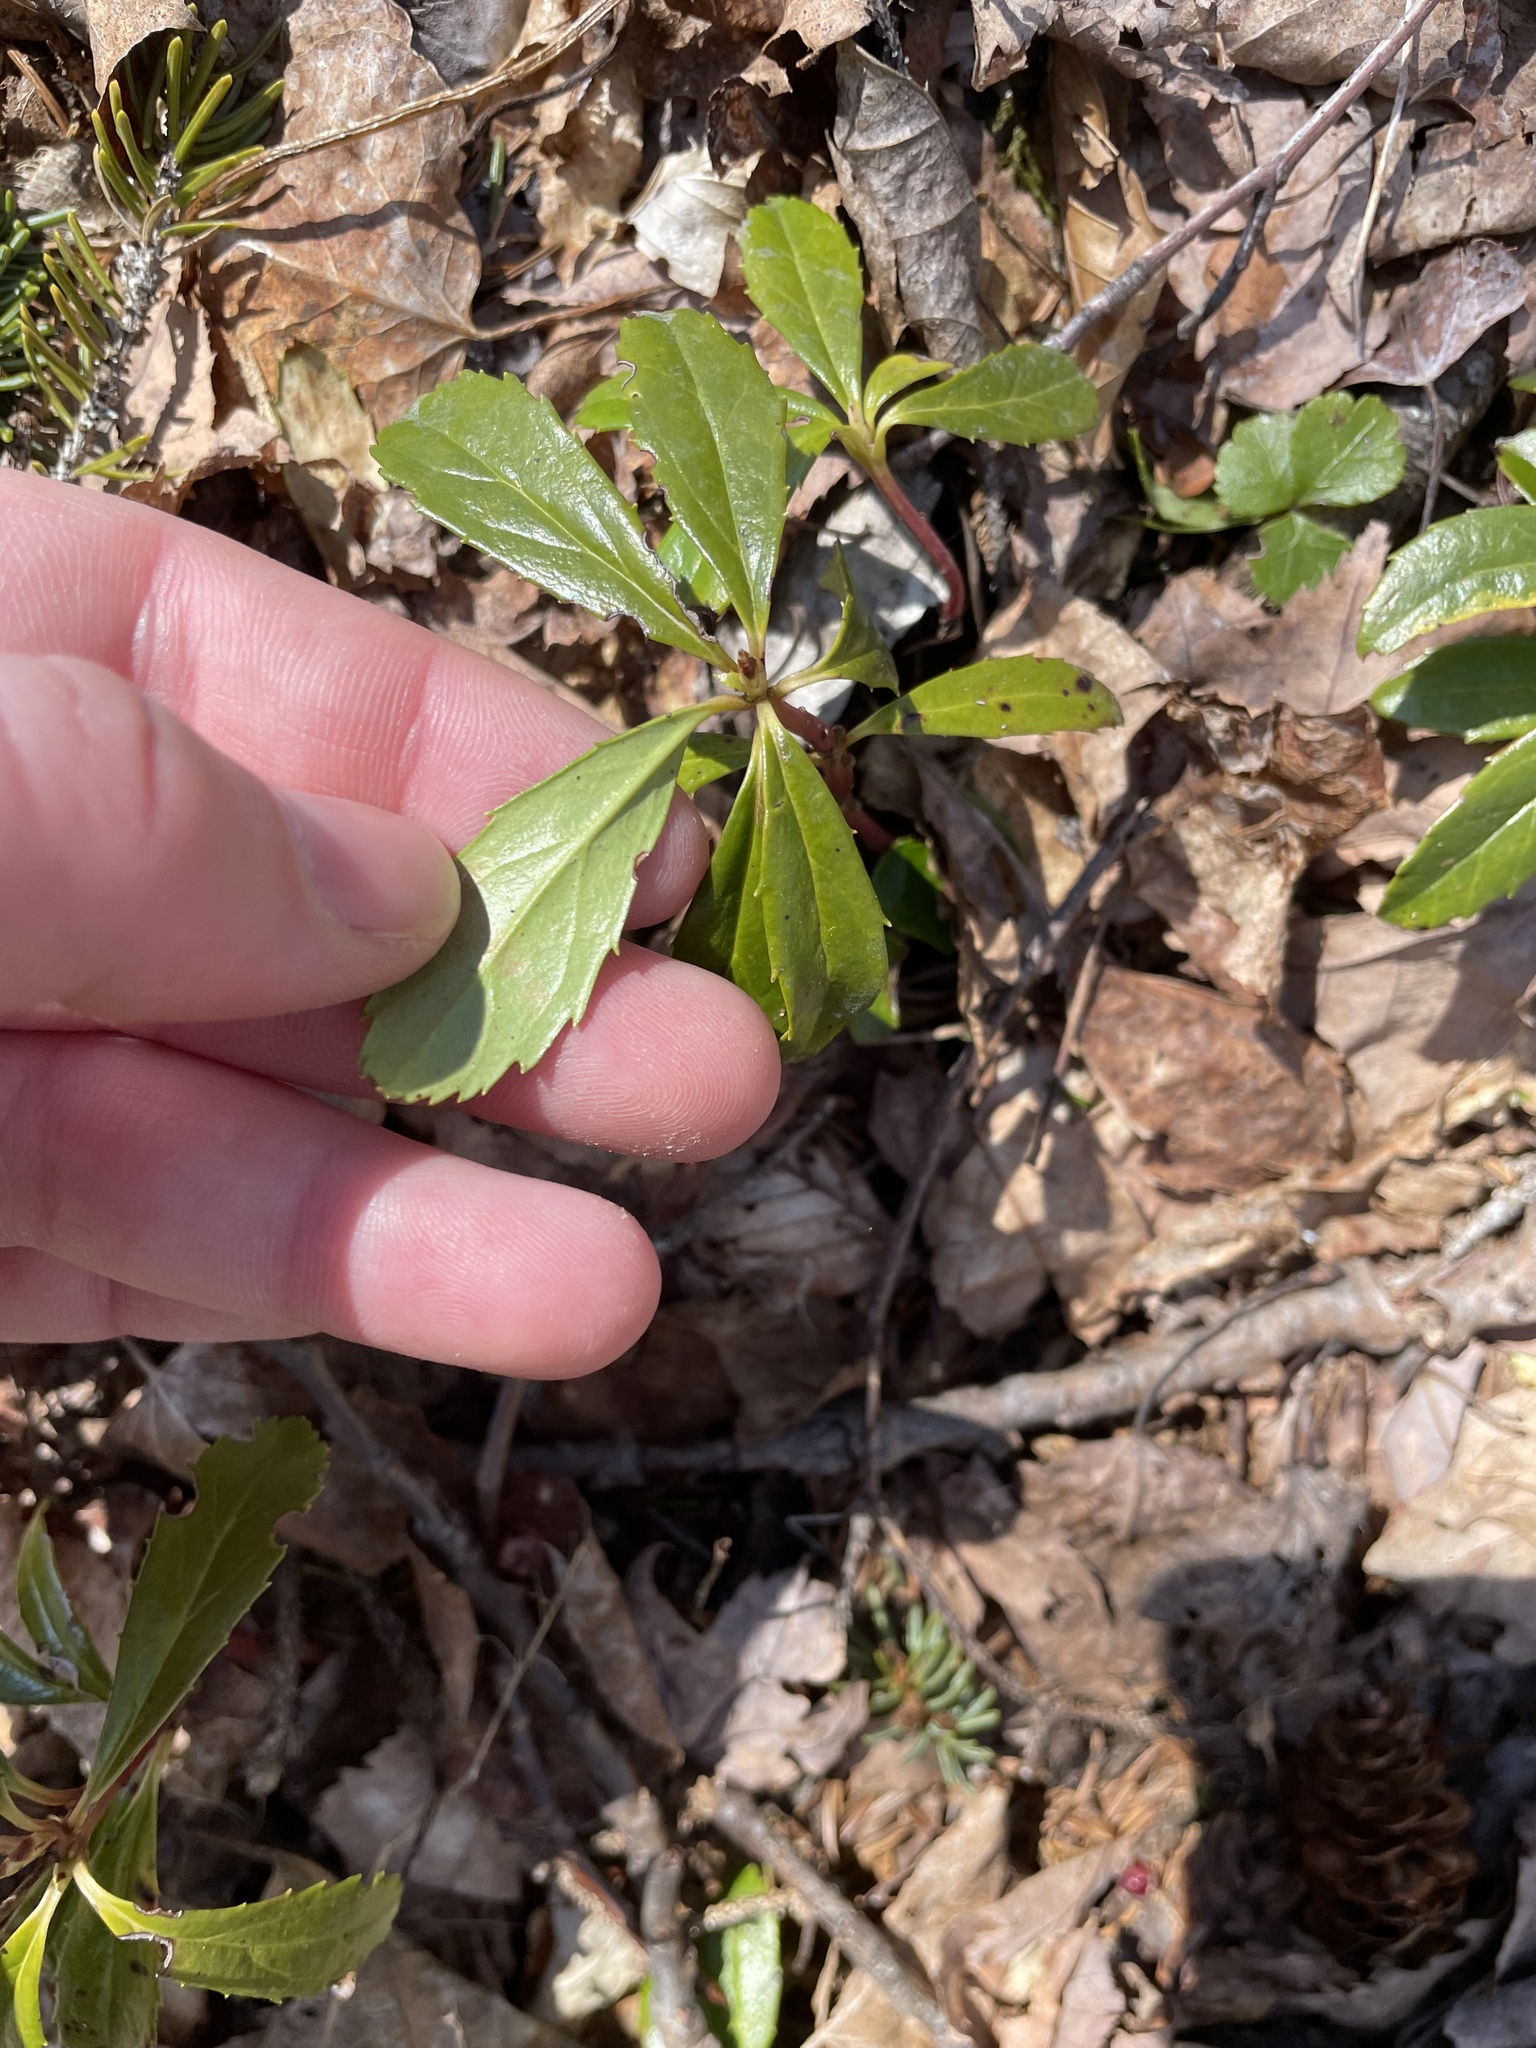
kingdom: Plantae
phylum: Tracheophyta
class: Magnoliopsida
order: Ericales
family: Ericaceae
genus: Chimaphila
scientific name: Chimaphila umbellata
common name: Pipsissewa
